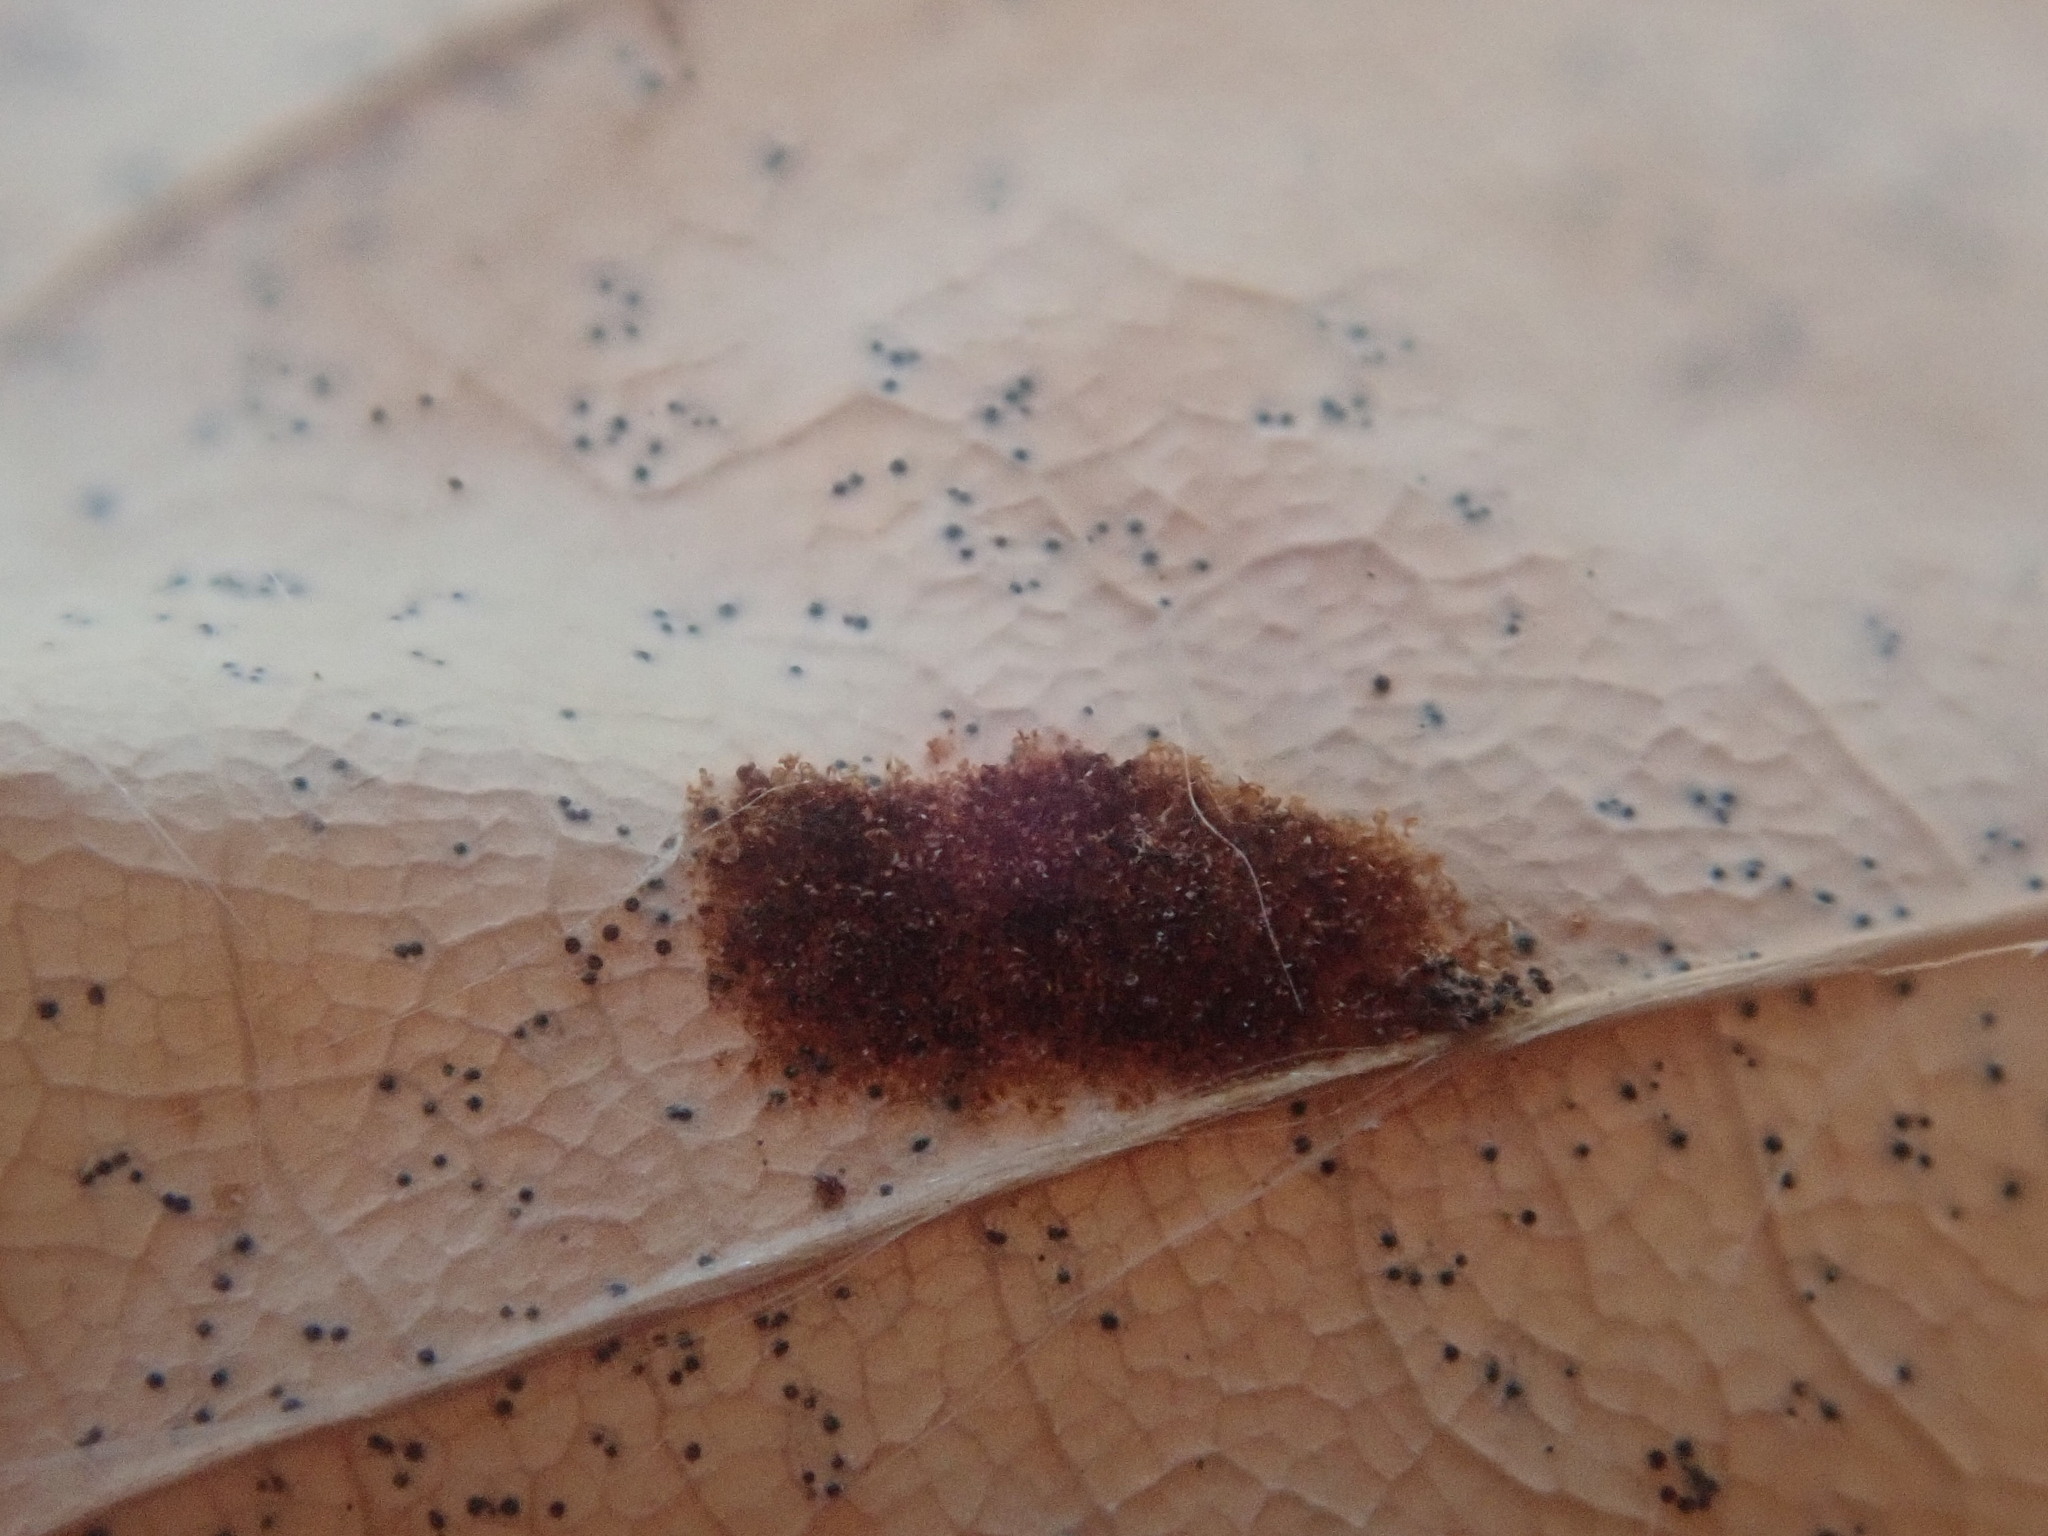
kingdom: Animalia
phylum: Arthropoda
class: Arachnida
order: Trombidiformes
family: Eriophyidae
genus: Acalitus
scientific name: Acalitus
